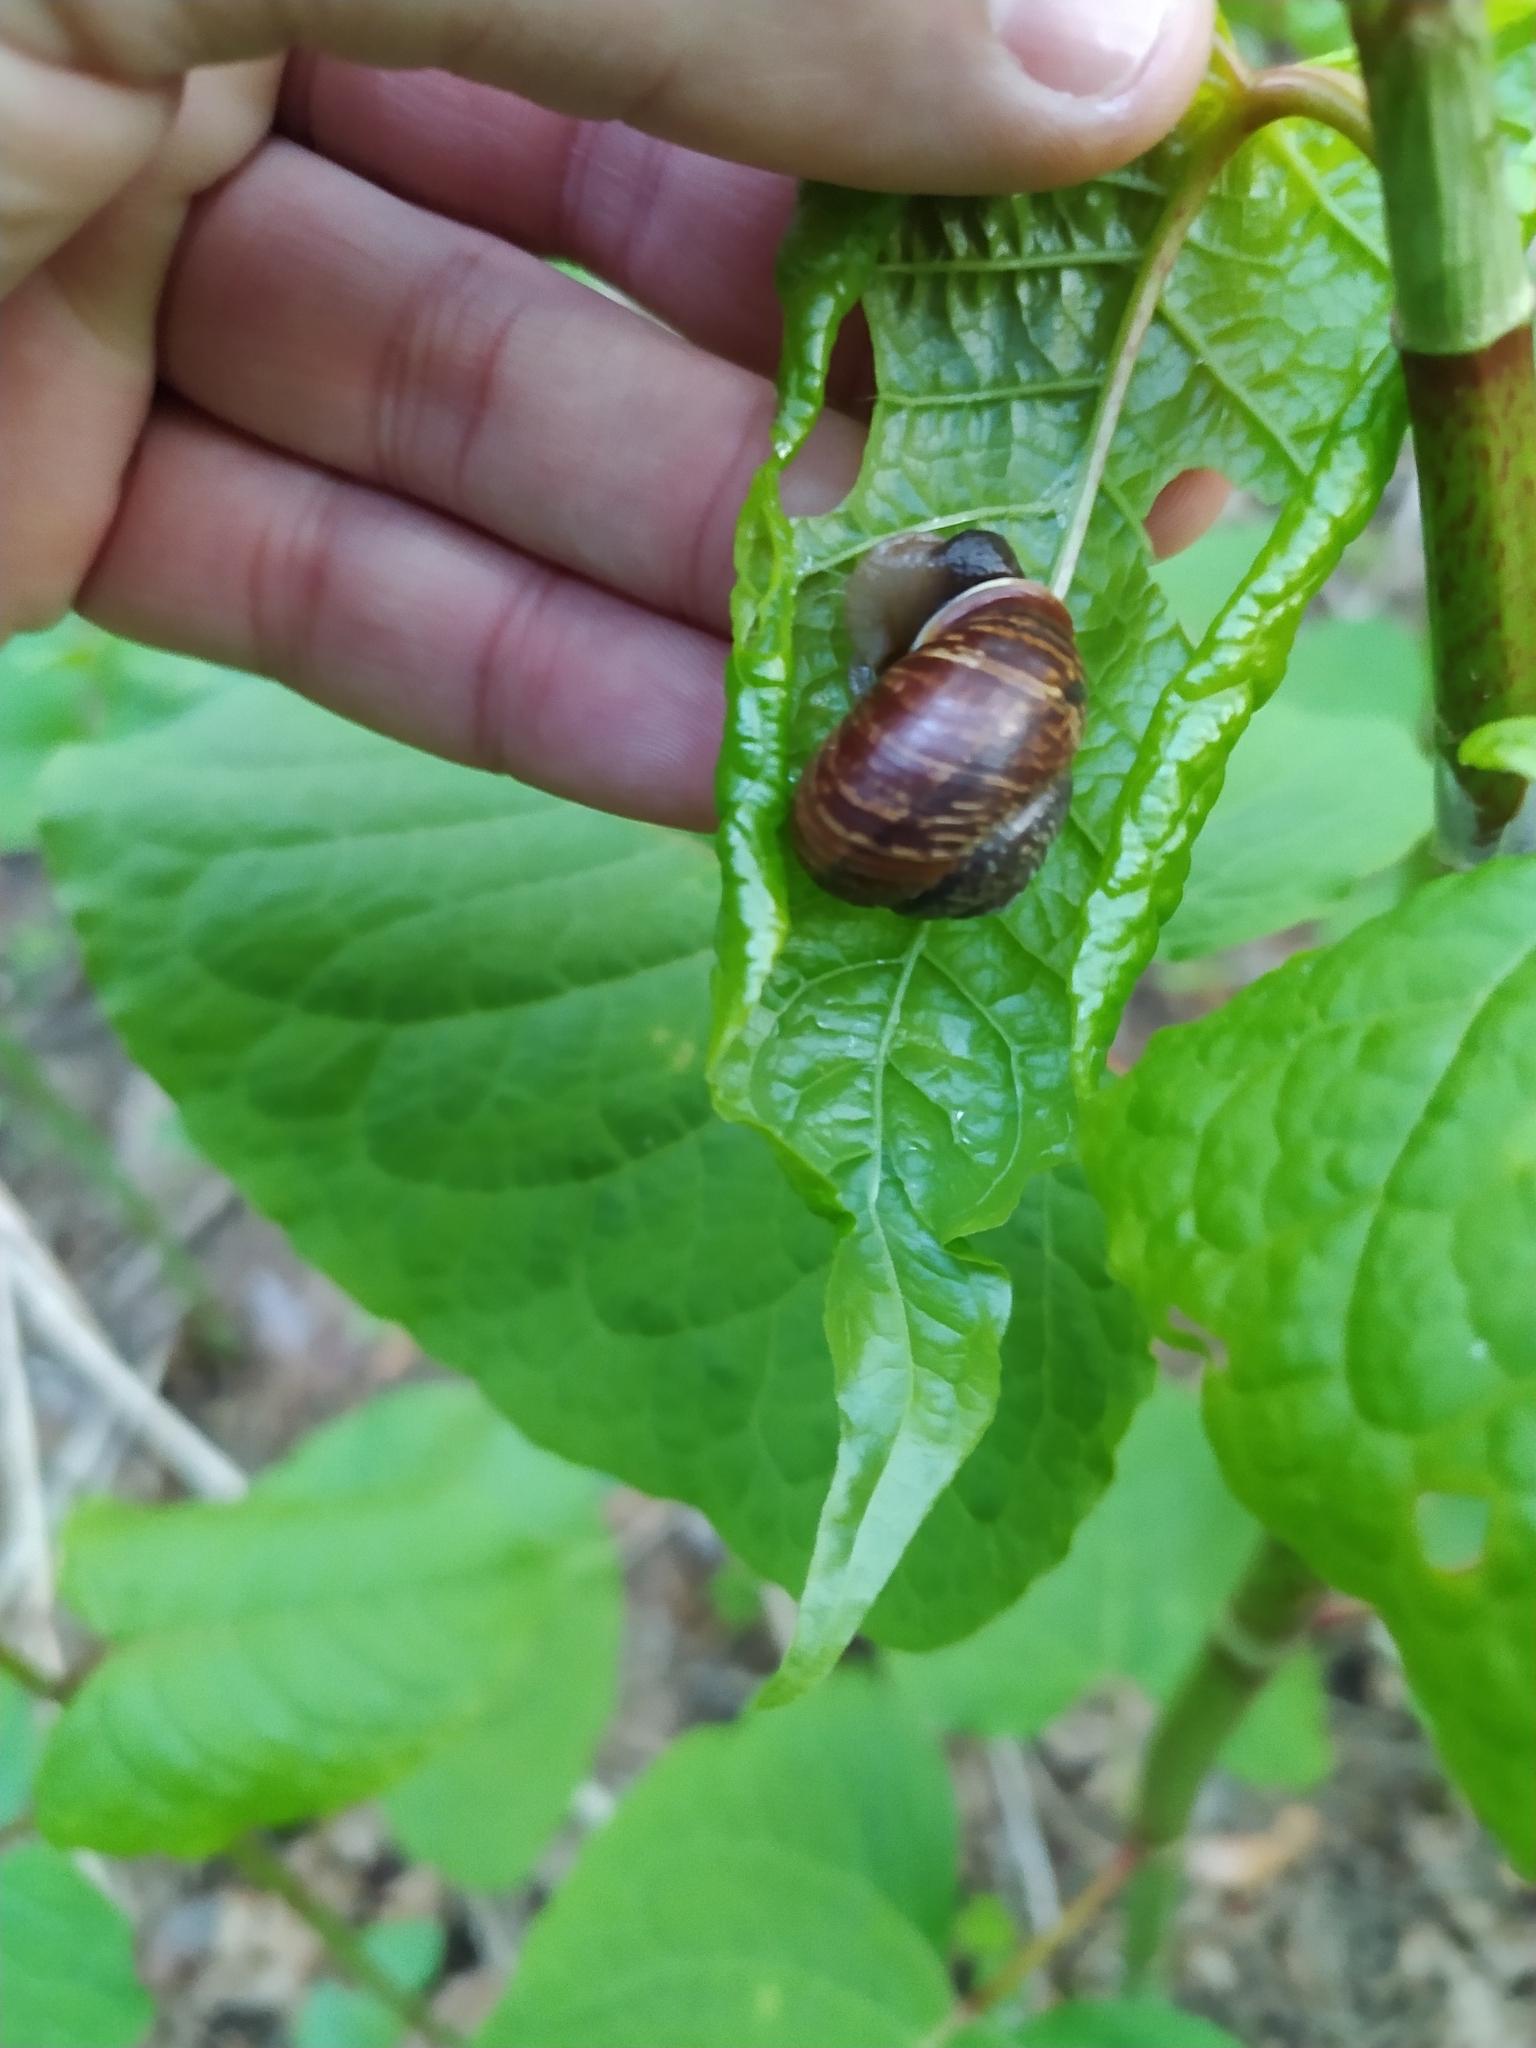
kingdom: Animalia
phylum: Mollusca
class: Gastropoda
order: Stylommatophora
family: Helicidae
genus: Arianta
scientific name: Arianta arbustorum
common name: Copse snail
